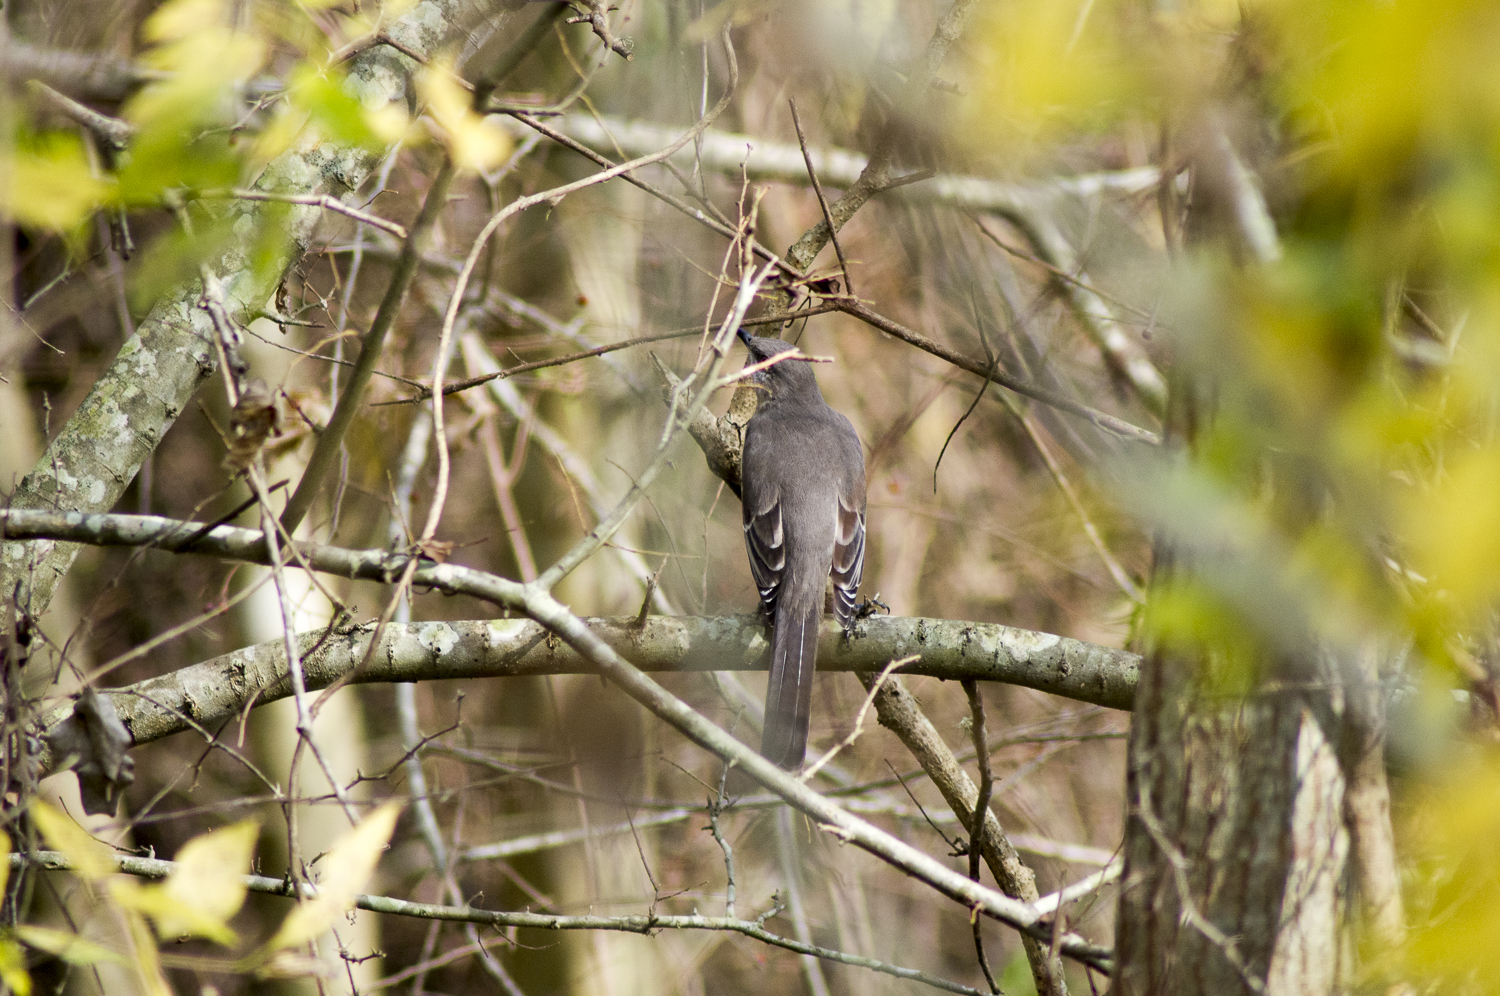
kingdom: Animalia
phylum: Chordata
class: Aves
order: Passeriformes
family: Mimidae
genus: Mimus
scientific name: Mimus polyglottos
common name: Northern mockingbird
